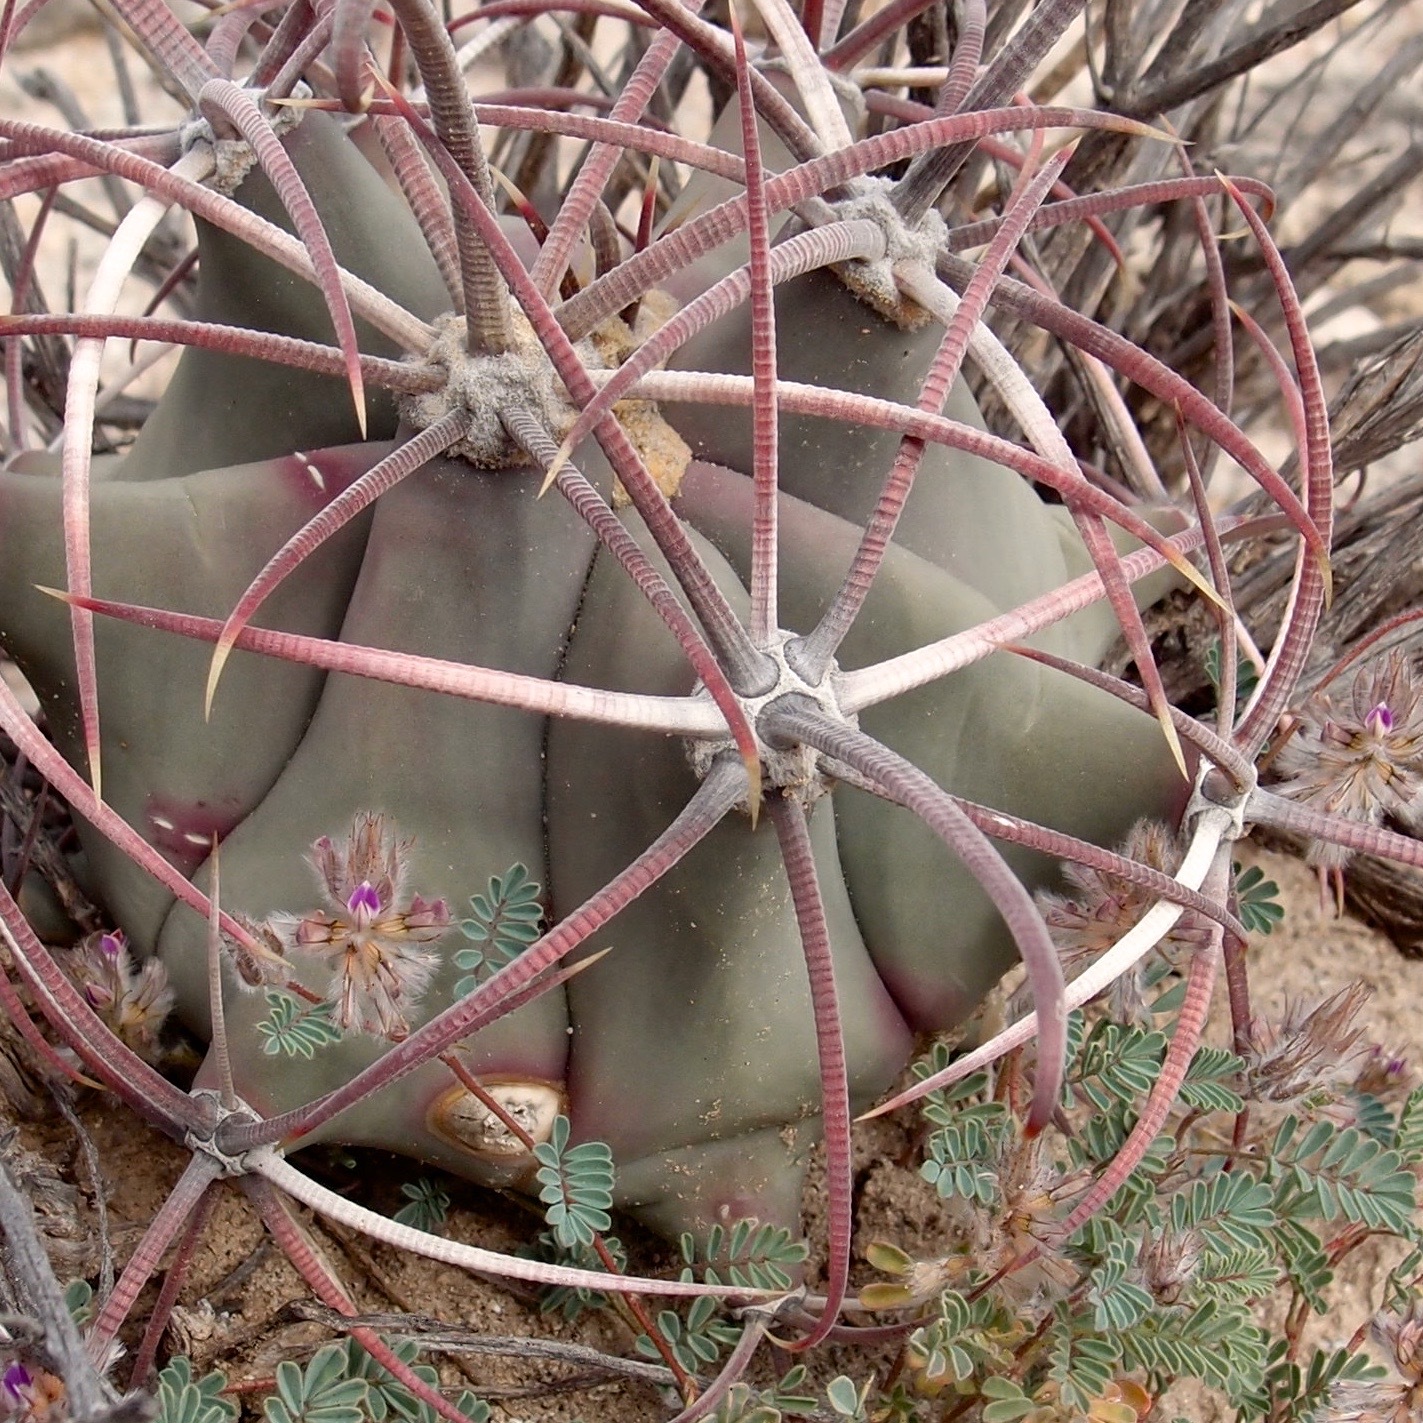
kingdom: Plantae
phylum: Tracheophyta
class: Magnoliopsida
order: Caryophyllales
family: Cactaceae
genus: Ferocactus
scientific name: Ferocactus emoryi
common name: Emory's barrel cactus
